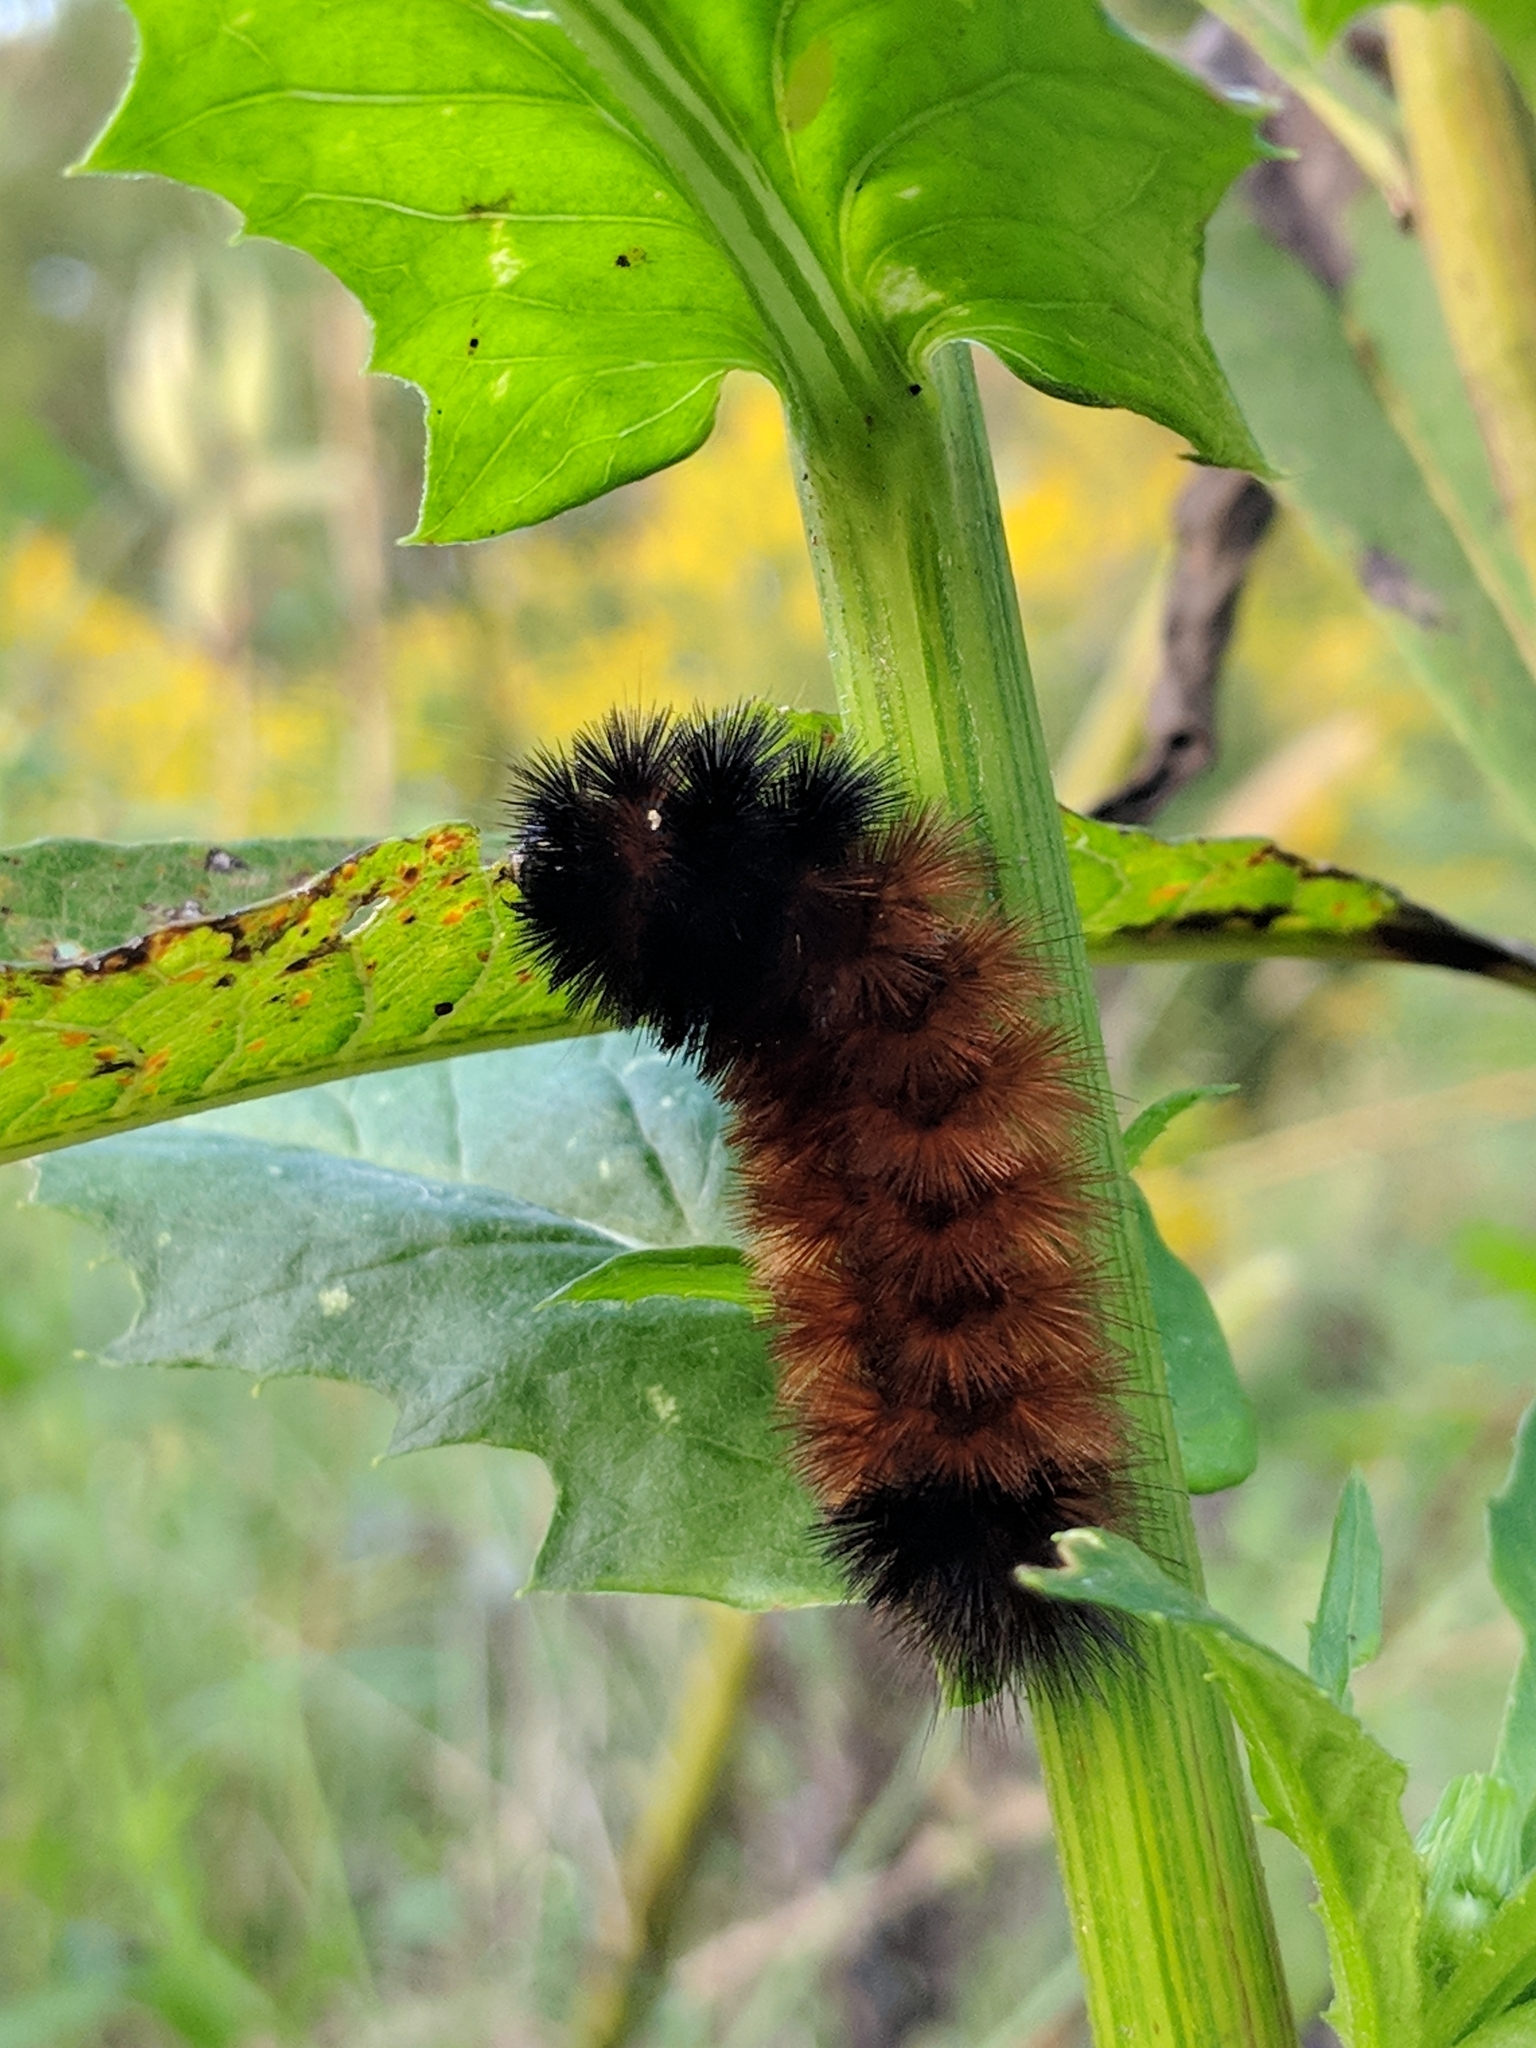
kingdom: Animalia
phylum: Arthropoda
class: Insecta
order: Lepidoptera
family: Erebidae
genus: Pyrrharctia
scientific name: Pyrrharctia isabella
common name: Isabella tiger moth
